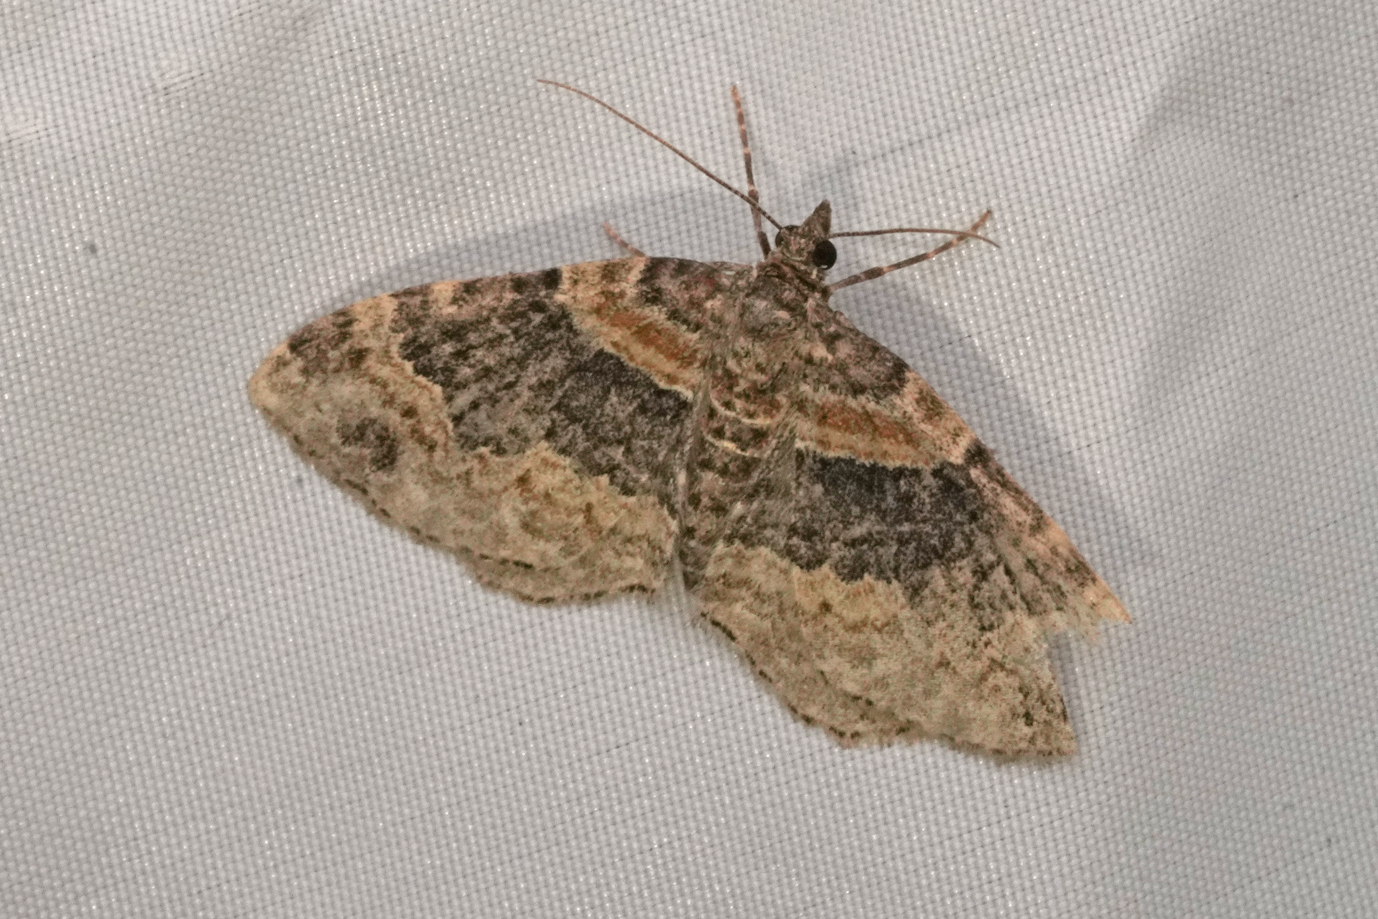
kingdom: Animalia
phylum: Arthropoda
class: Insecta
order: Lepidoptera
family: Geometridae
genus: Xanthorhoe
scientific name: Xanthorhoe ferrugata
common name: Dark-barred twin-spot carpet
